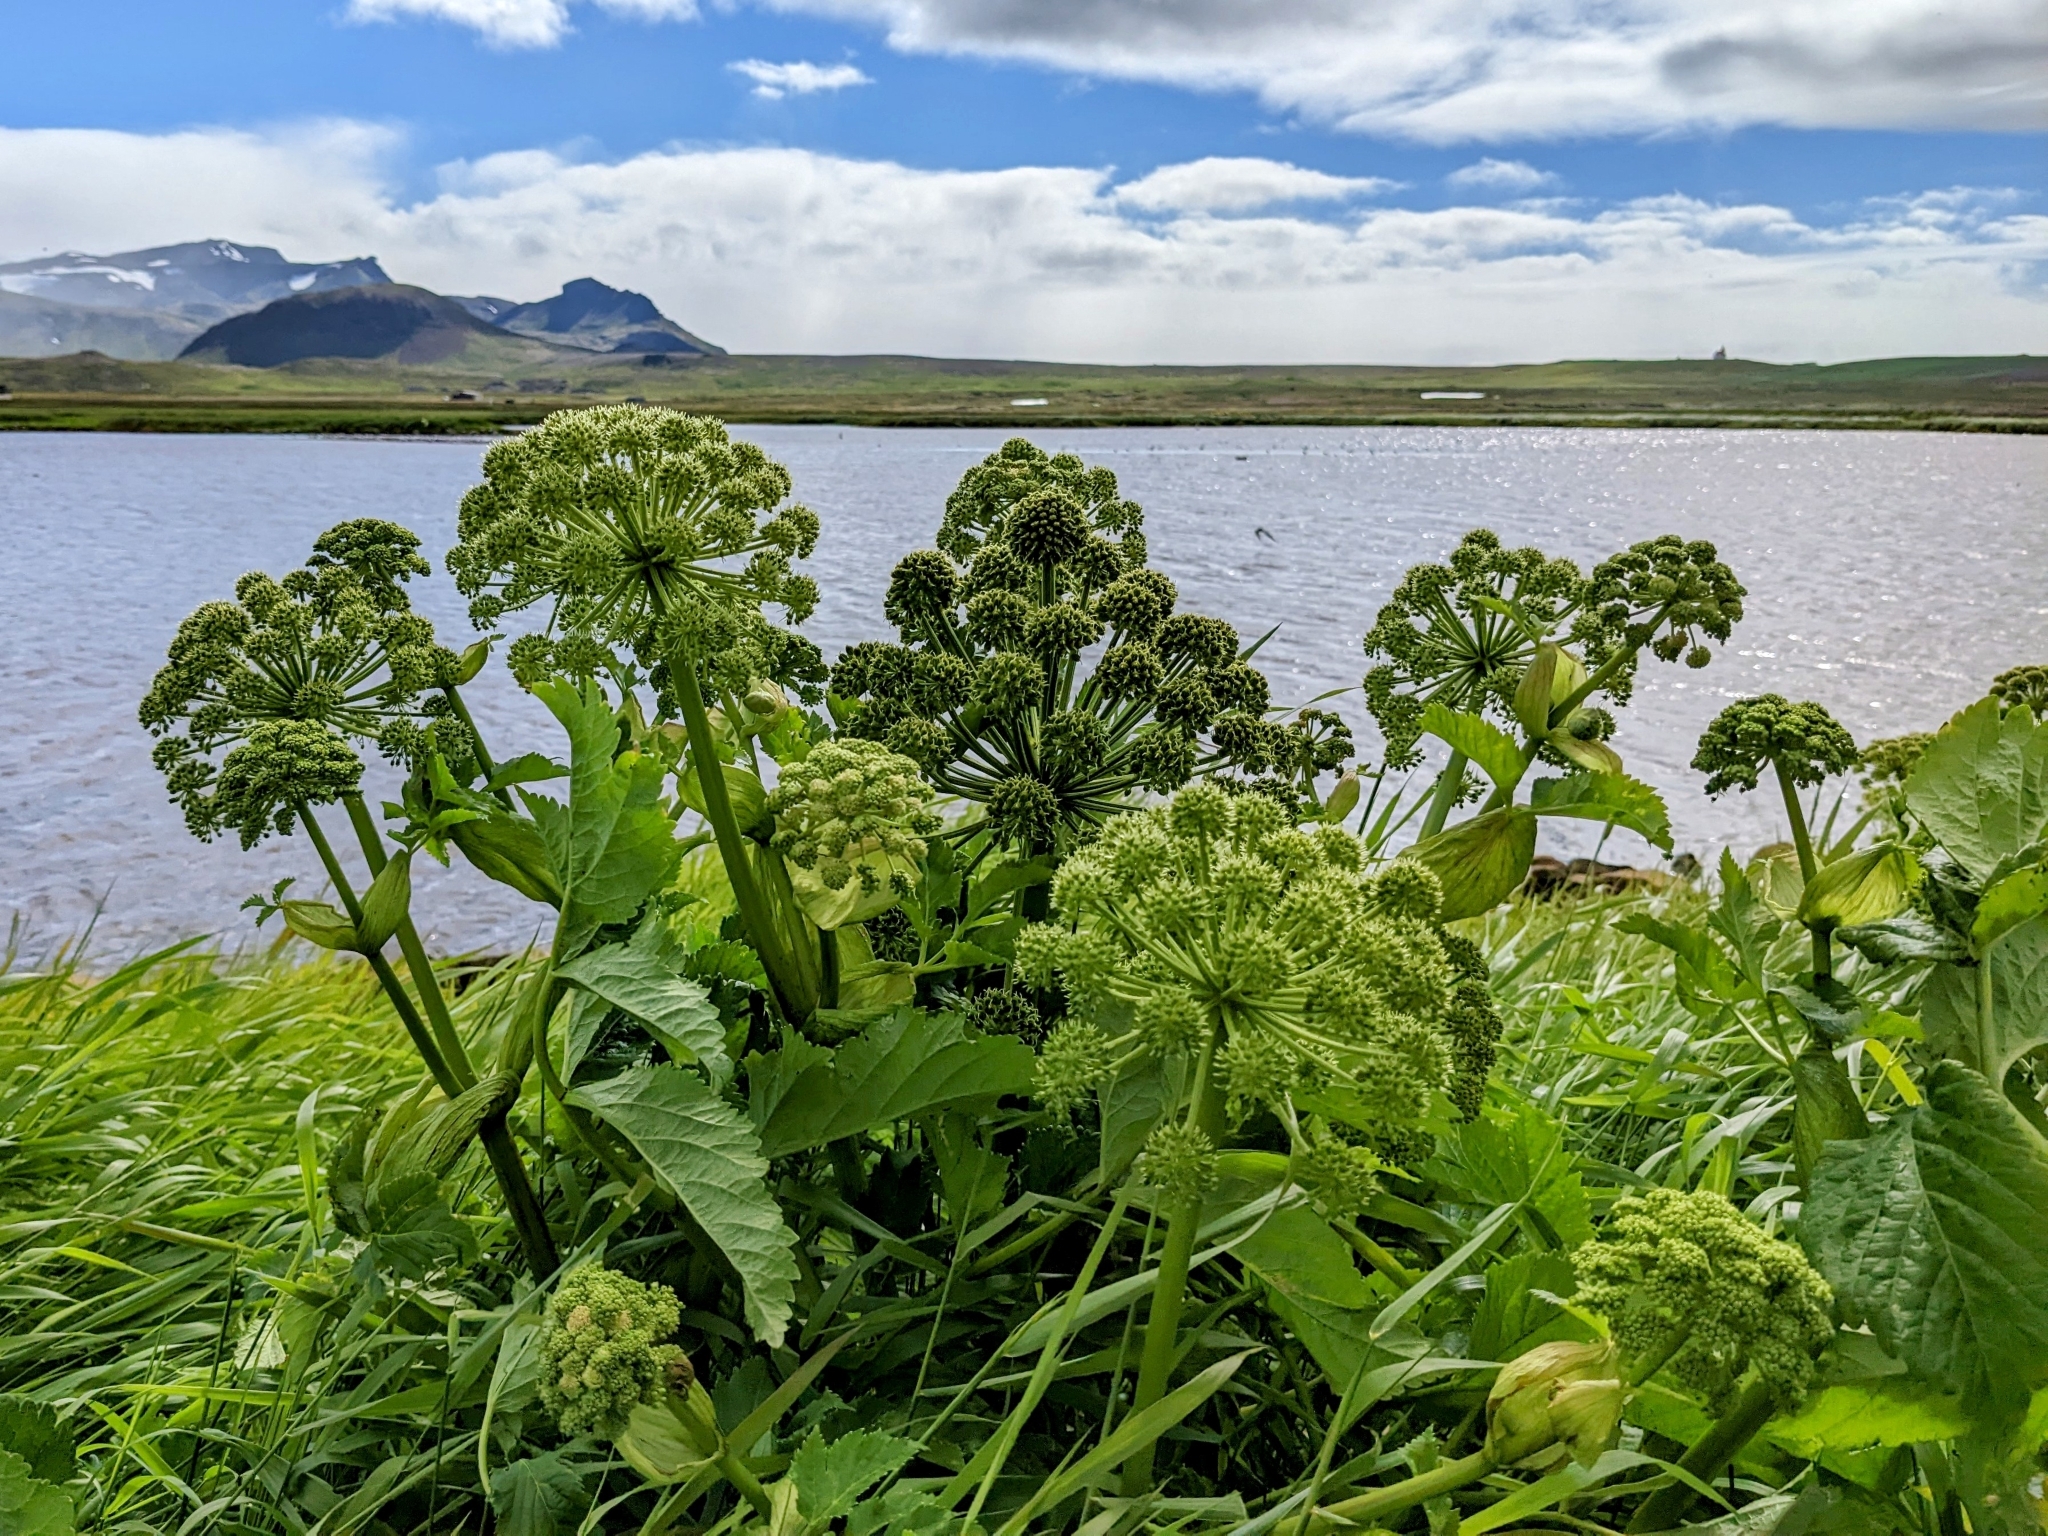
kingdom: Plantae
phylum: Tracheophyta
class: Magnoliopsida
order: Apiales
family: Apiaceae
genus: Angelica
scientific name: Angelica archangelica
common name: Garden angelica
